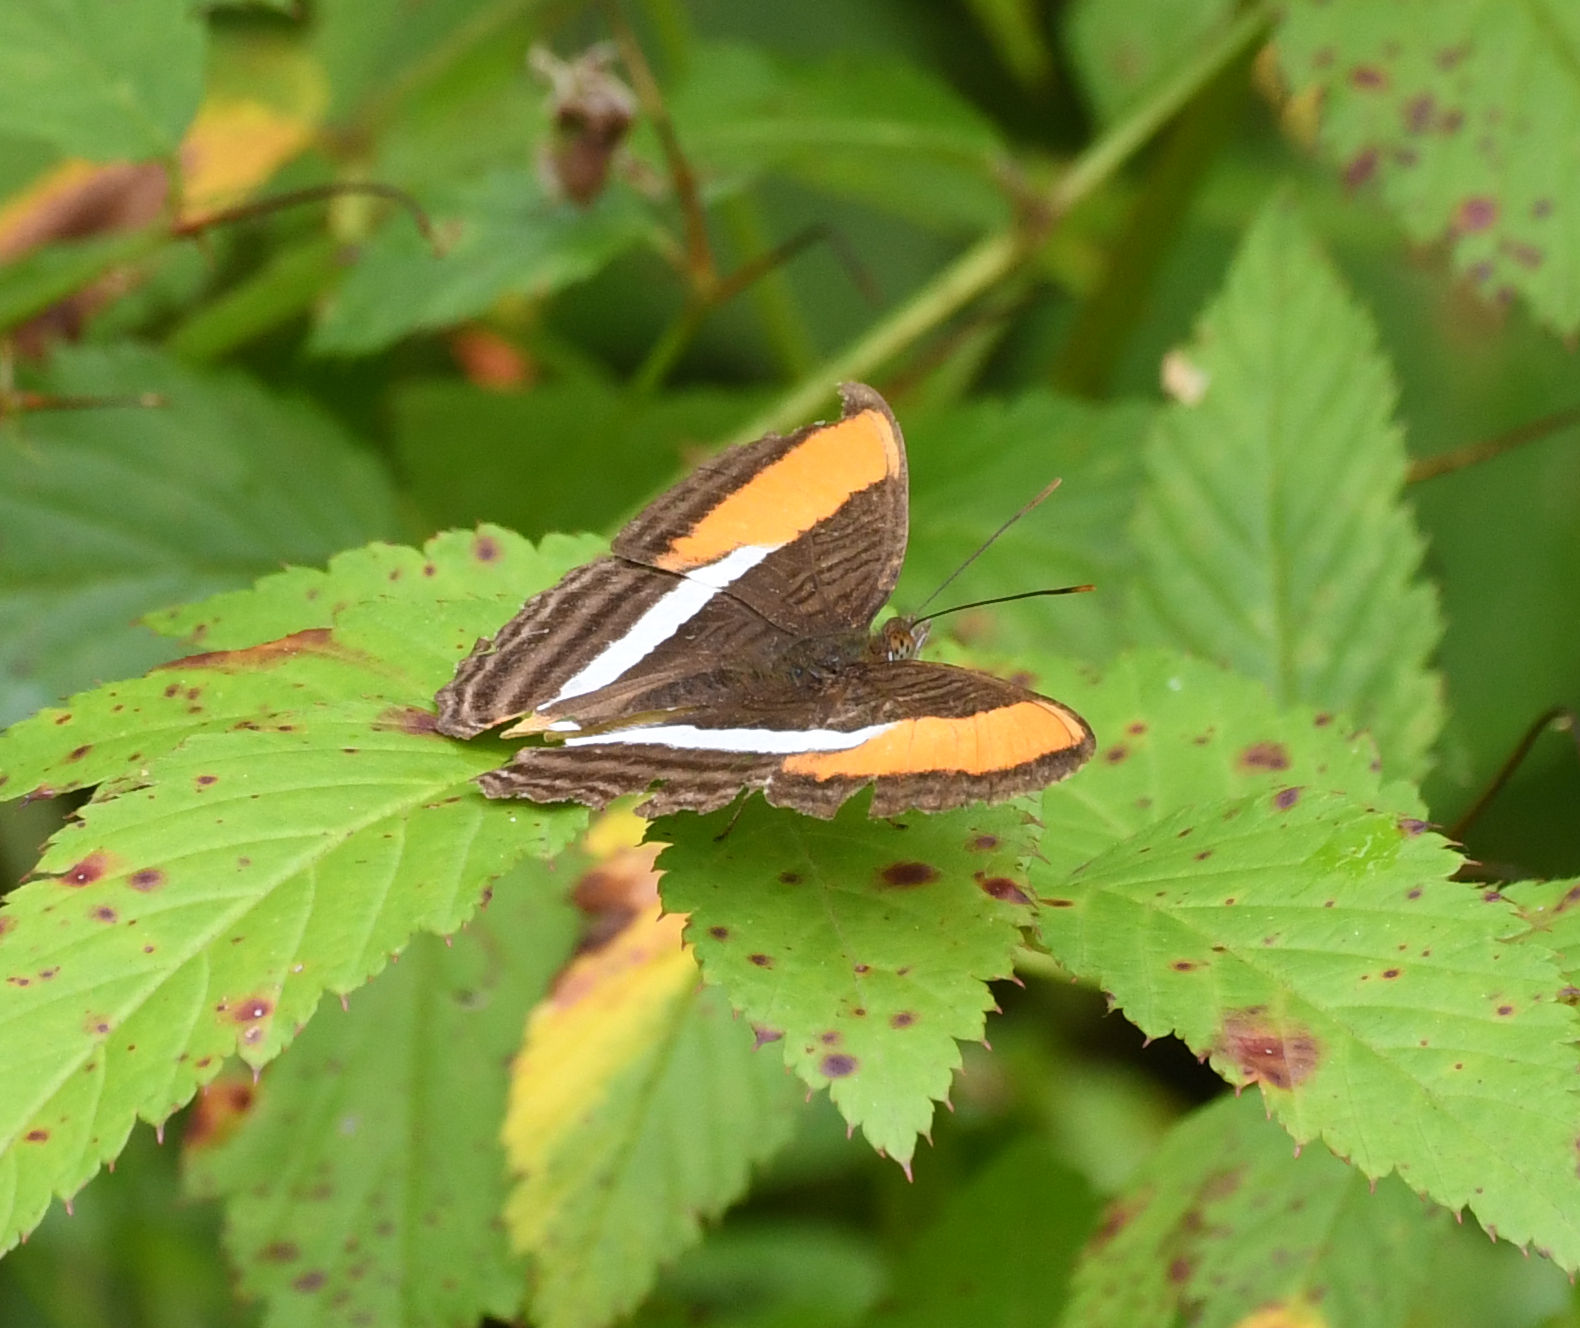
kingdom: Animalia
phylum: Arthropoda
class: Insecta
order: Lepidoptera
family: Nymphalidae
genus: Limenitis
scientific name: Limenitis cytherea
